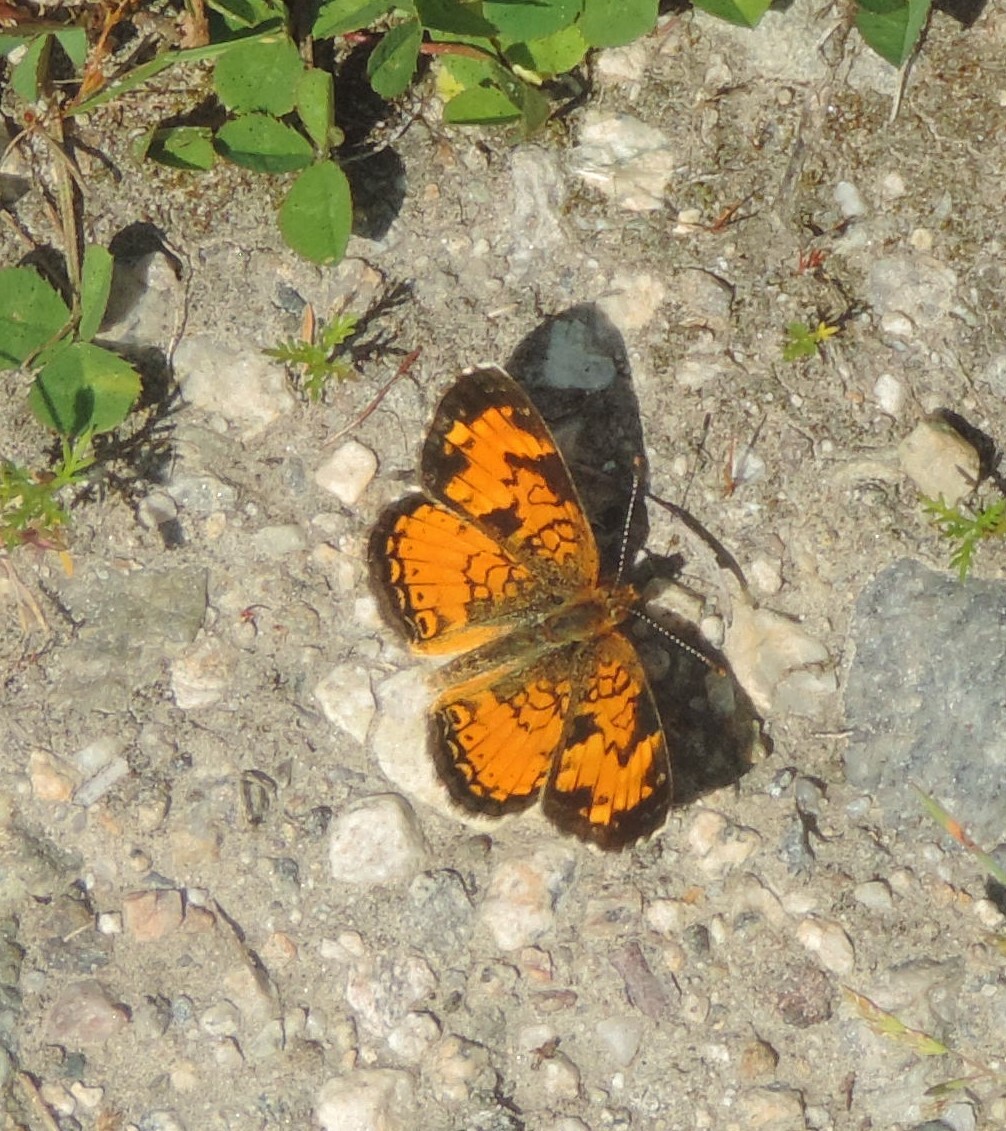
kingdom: Animalia
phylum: Arthropoda
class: Insecta
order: Lepidoptera
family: Nymphalidae
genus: Phyciodes
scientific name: Phyciodes tharos
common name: Pearl crescent
